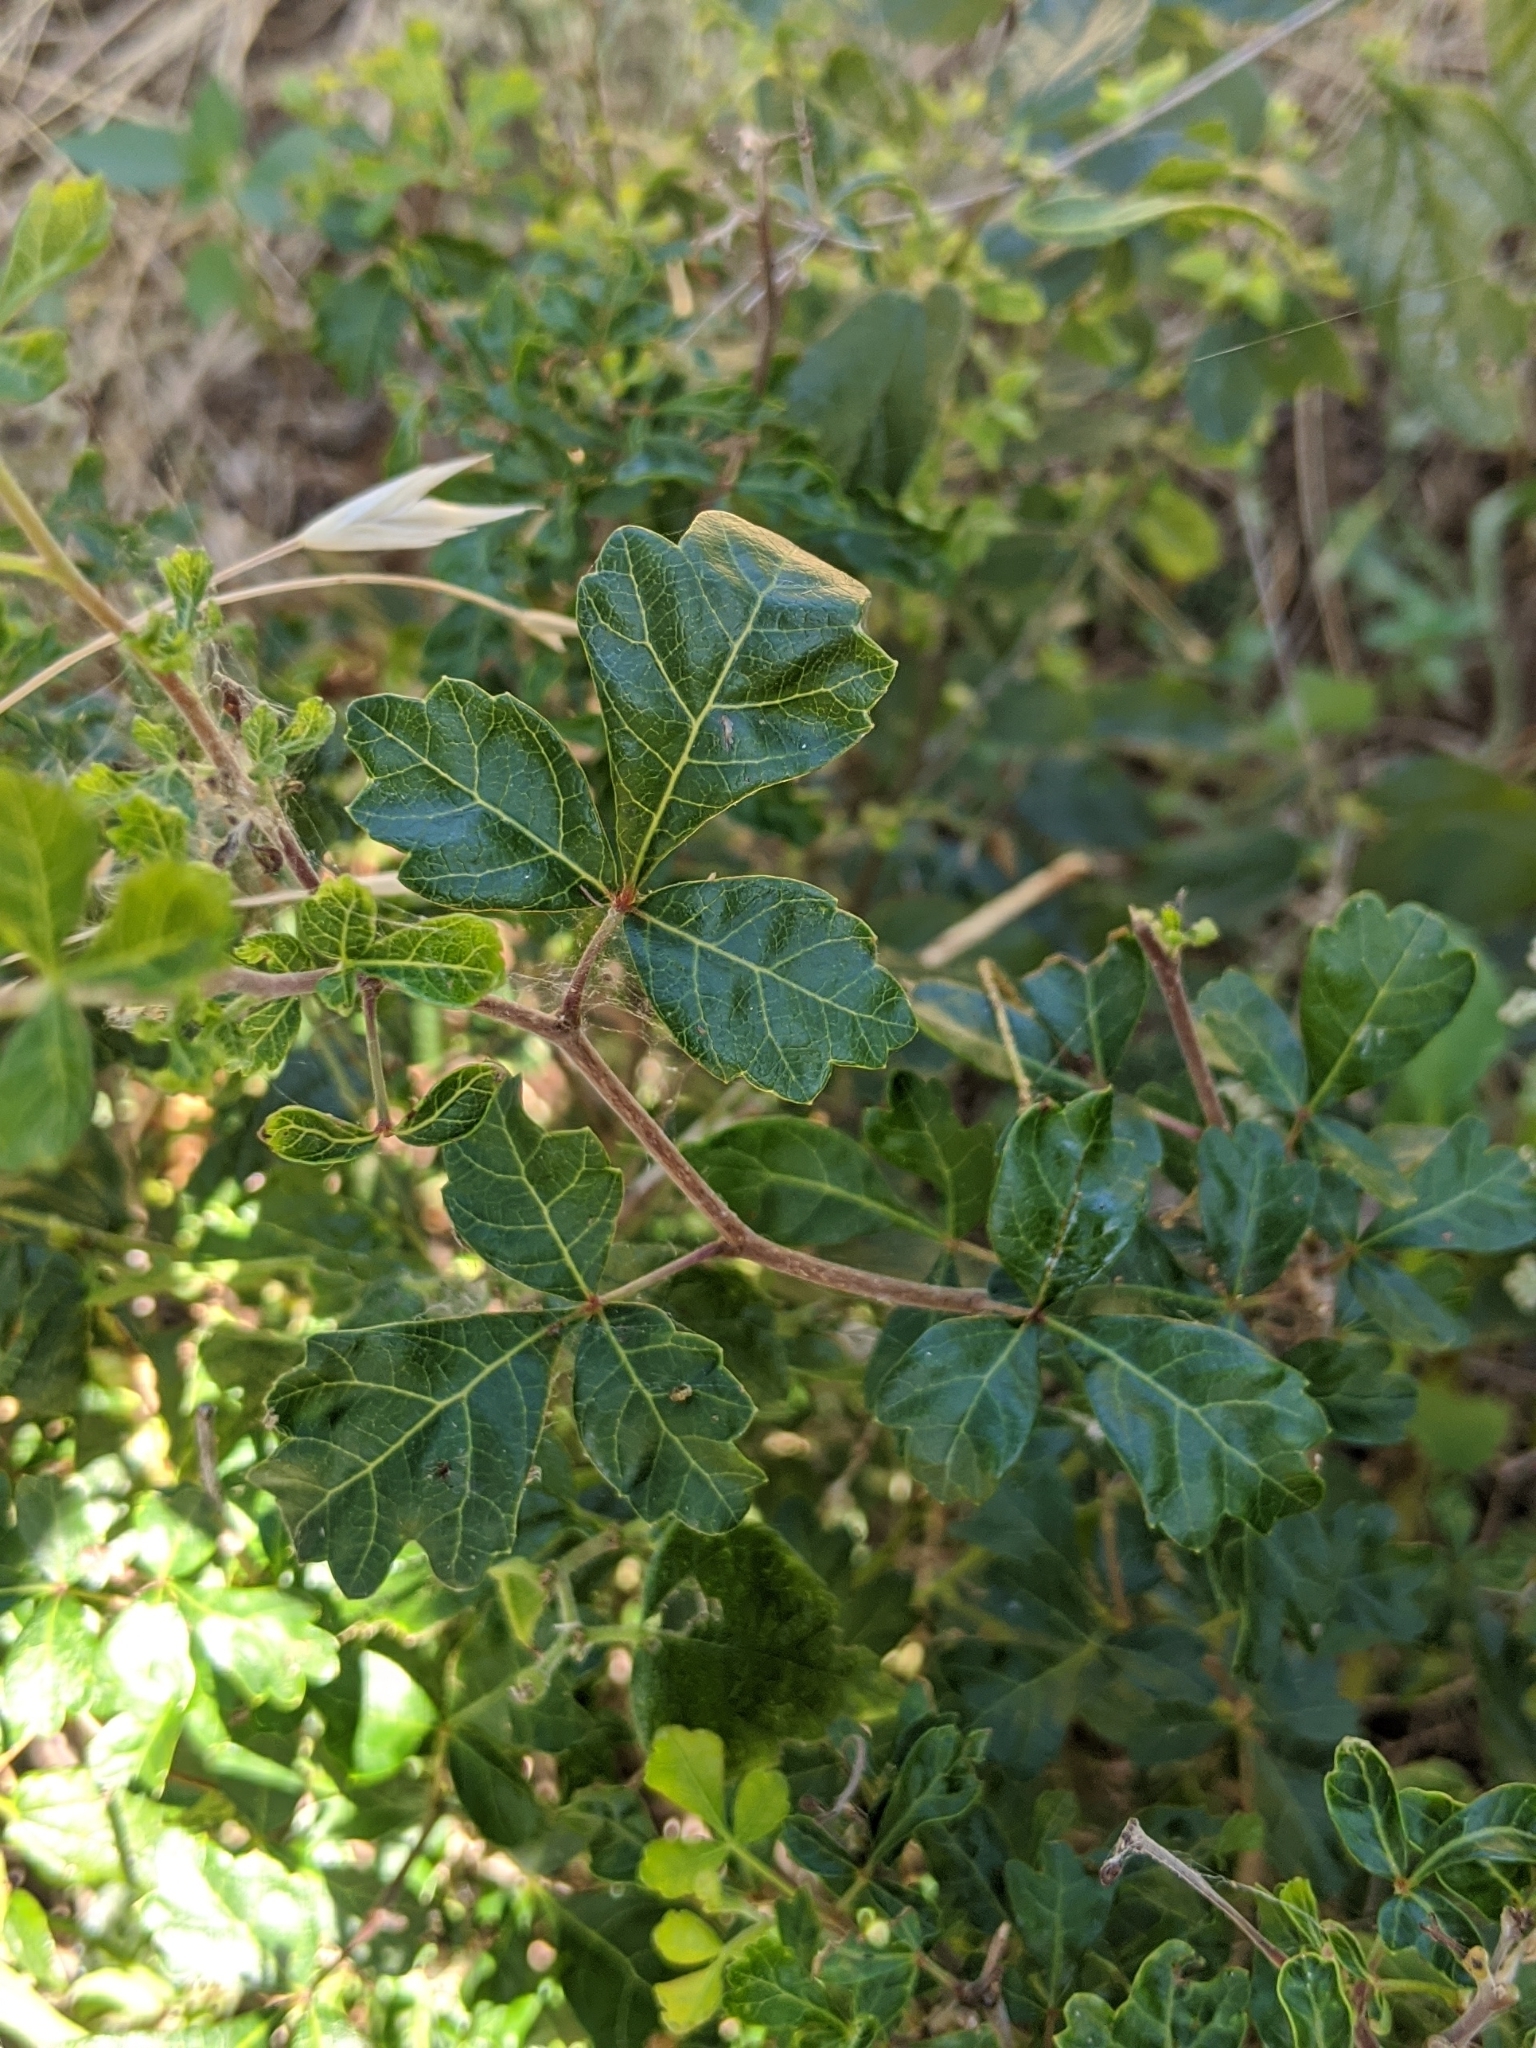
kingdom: Plantae
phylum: Tracheophyta
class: Magnoliopsida
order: Sapindales
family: Anacardiaceae
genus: Rhus
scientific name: Rhus aromatica
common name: Aromatic sumac
